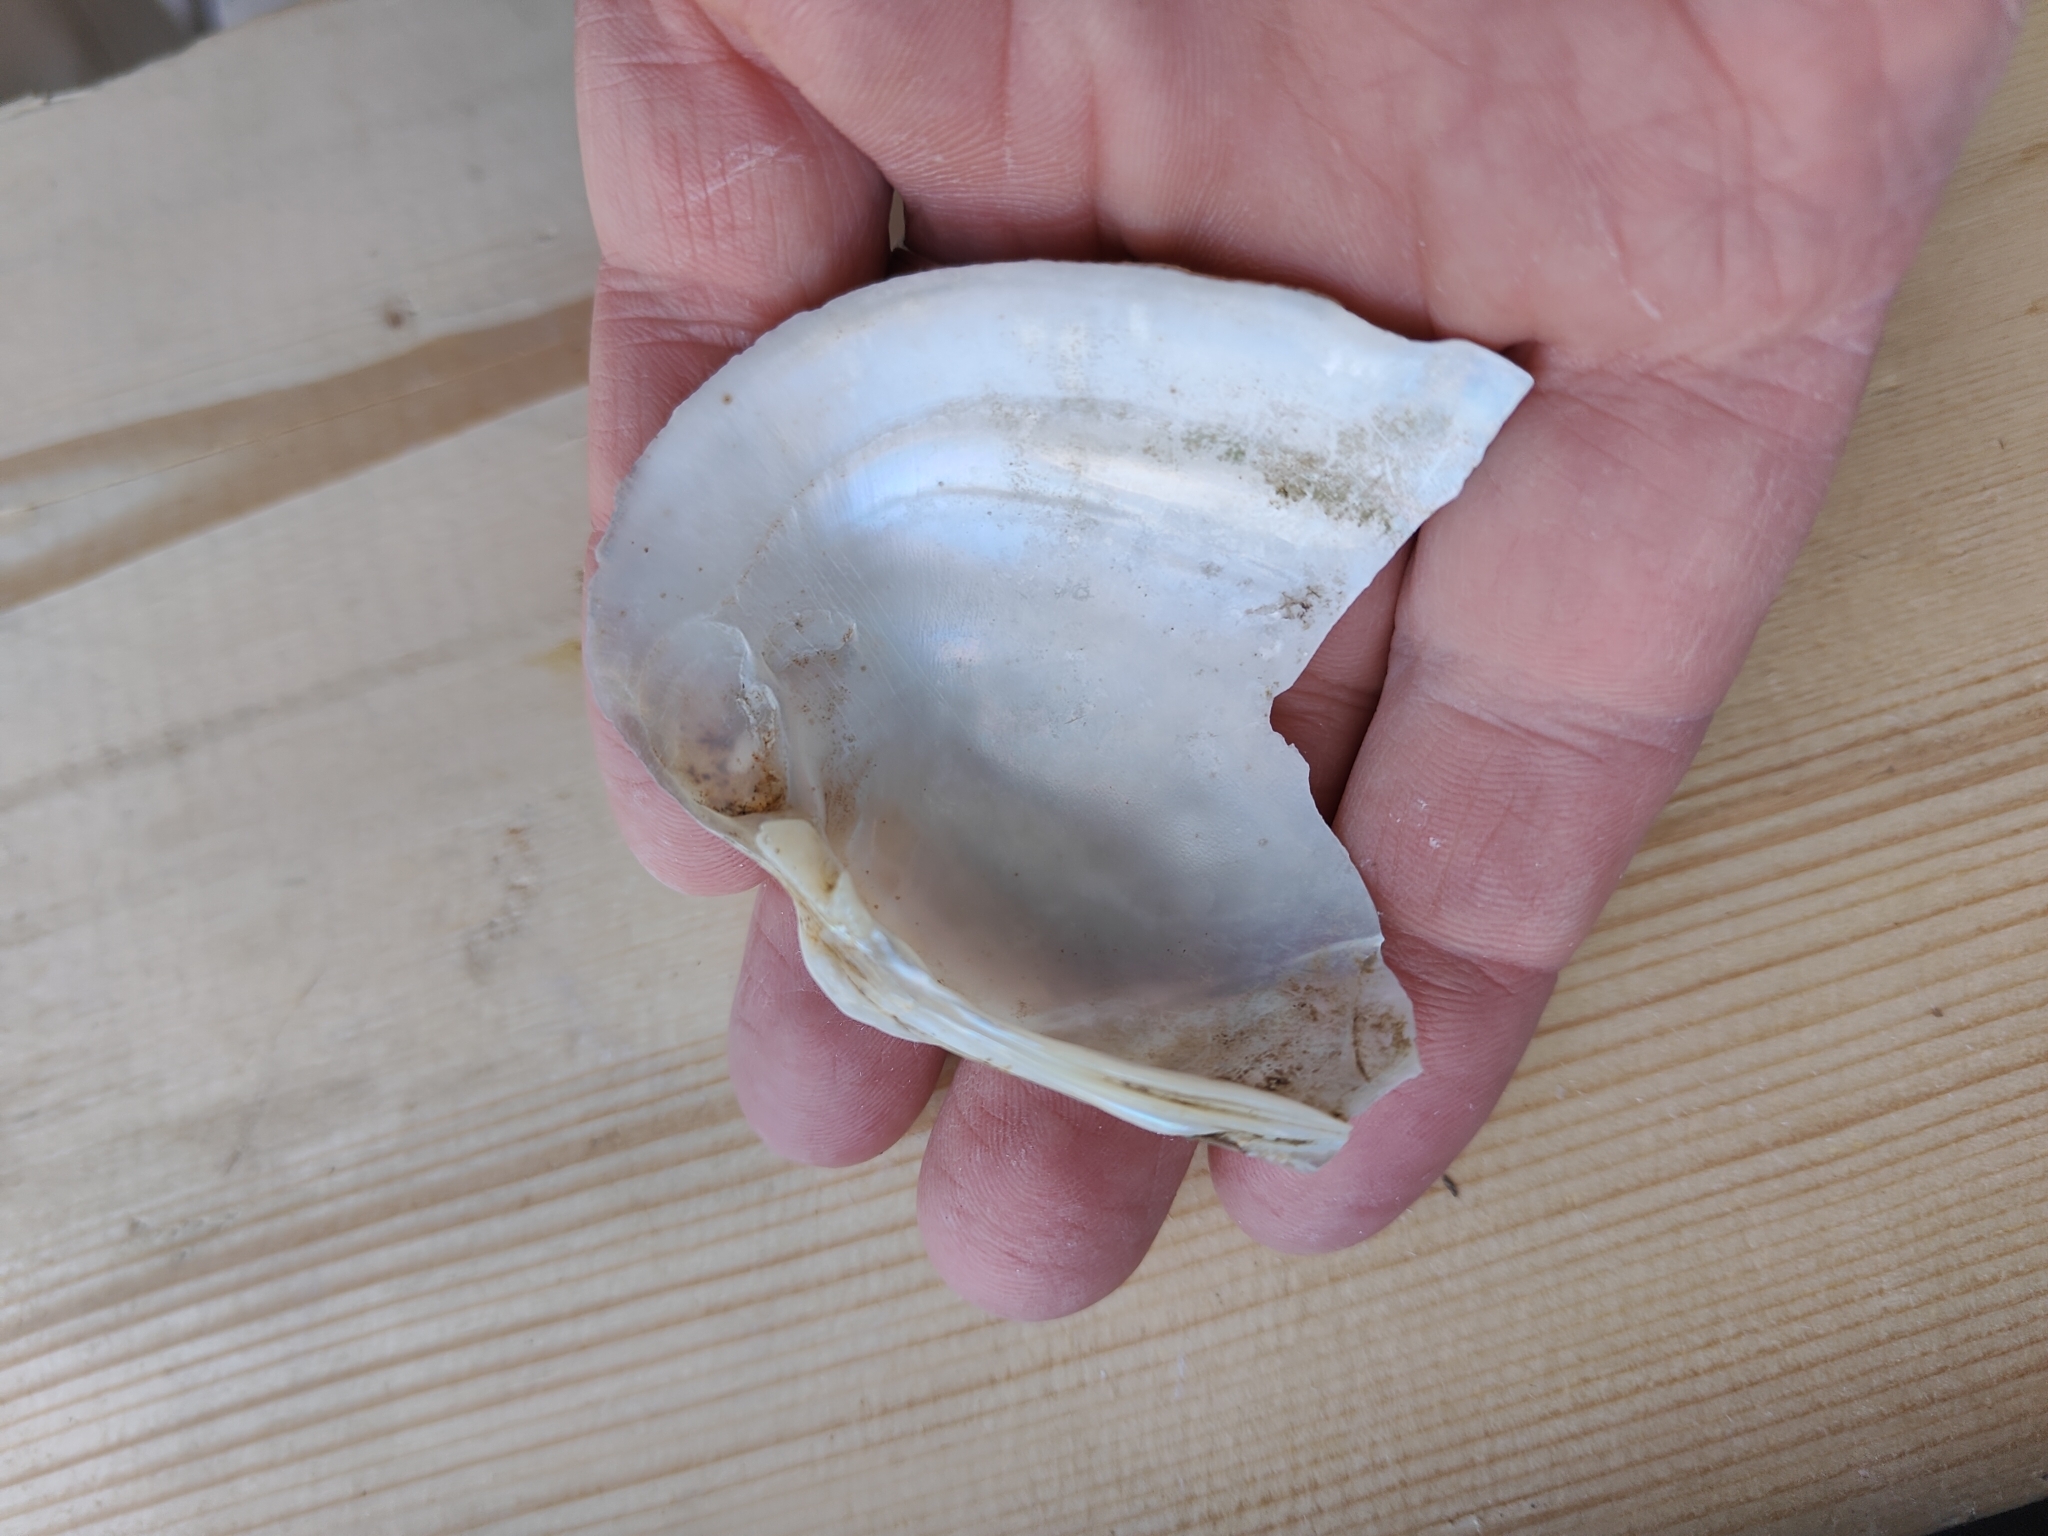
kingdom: Animalia
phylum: Mollusca
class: Bivalvia
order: Unionida
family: Unionidae
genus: Lampsilis
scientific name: Lampsilis cardium
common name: Plain pocketbook
